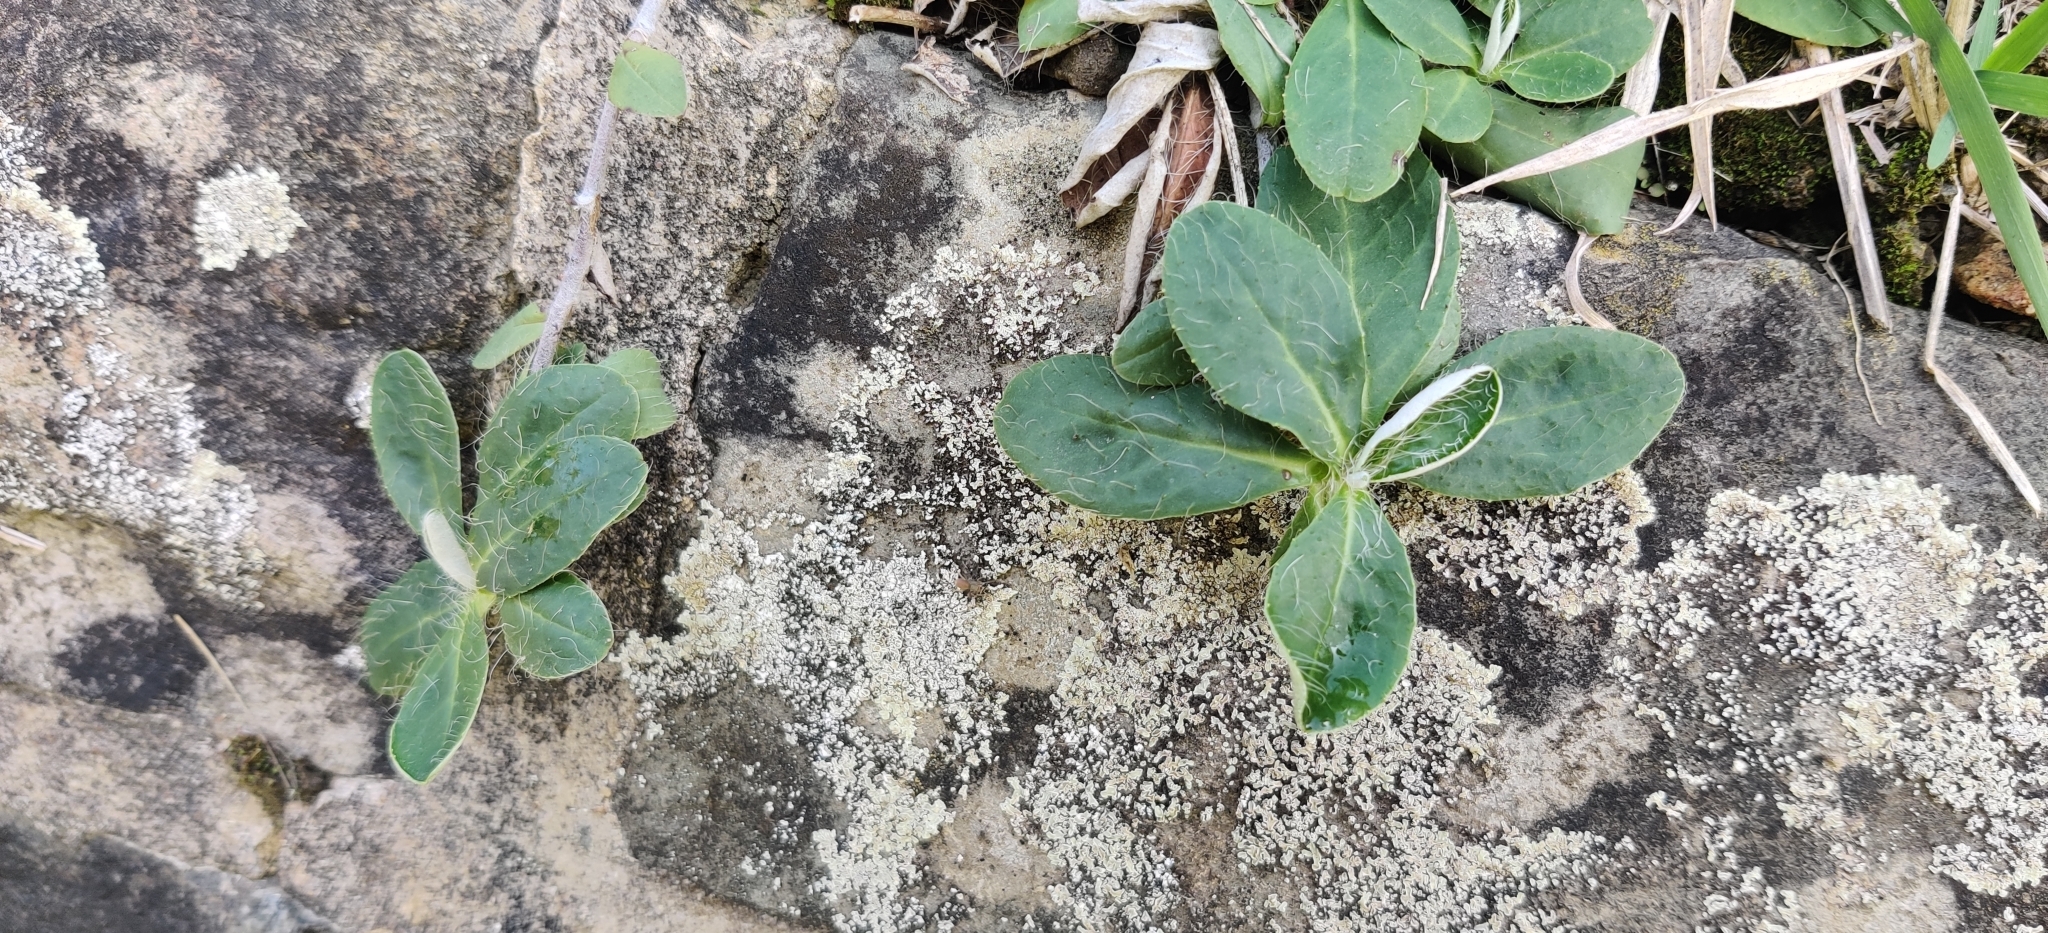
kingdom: Plantae
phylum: Tracheophyta
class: Magnoliopsida
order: Asterales
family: Asteraceae
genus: Pilosella
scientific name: Pilosella officinarum
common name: Mouse-ear hawkweed
